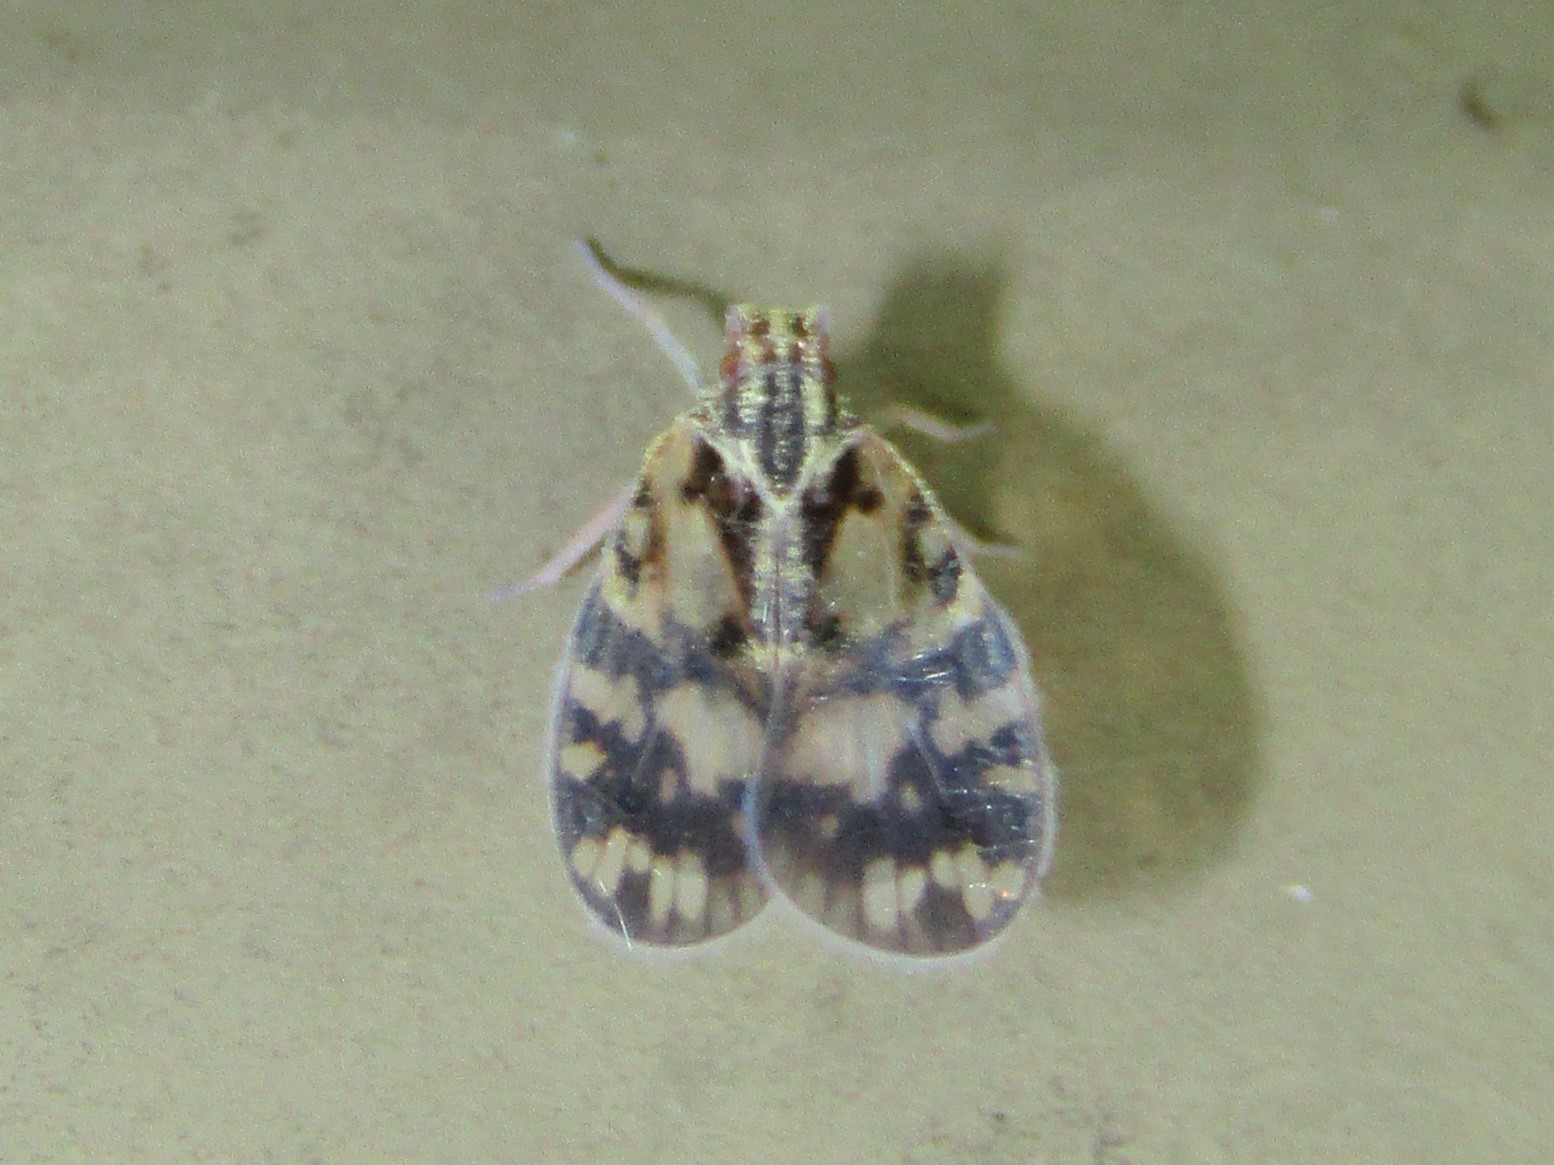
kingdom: Animalia
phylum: Arthropoda
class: Insecta
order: Hemiptera
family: Cixiidae
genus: Bothriocera
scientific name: Bothriocera cognita
